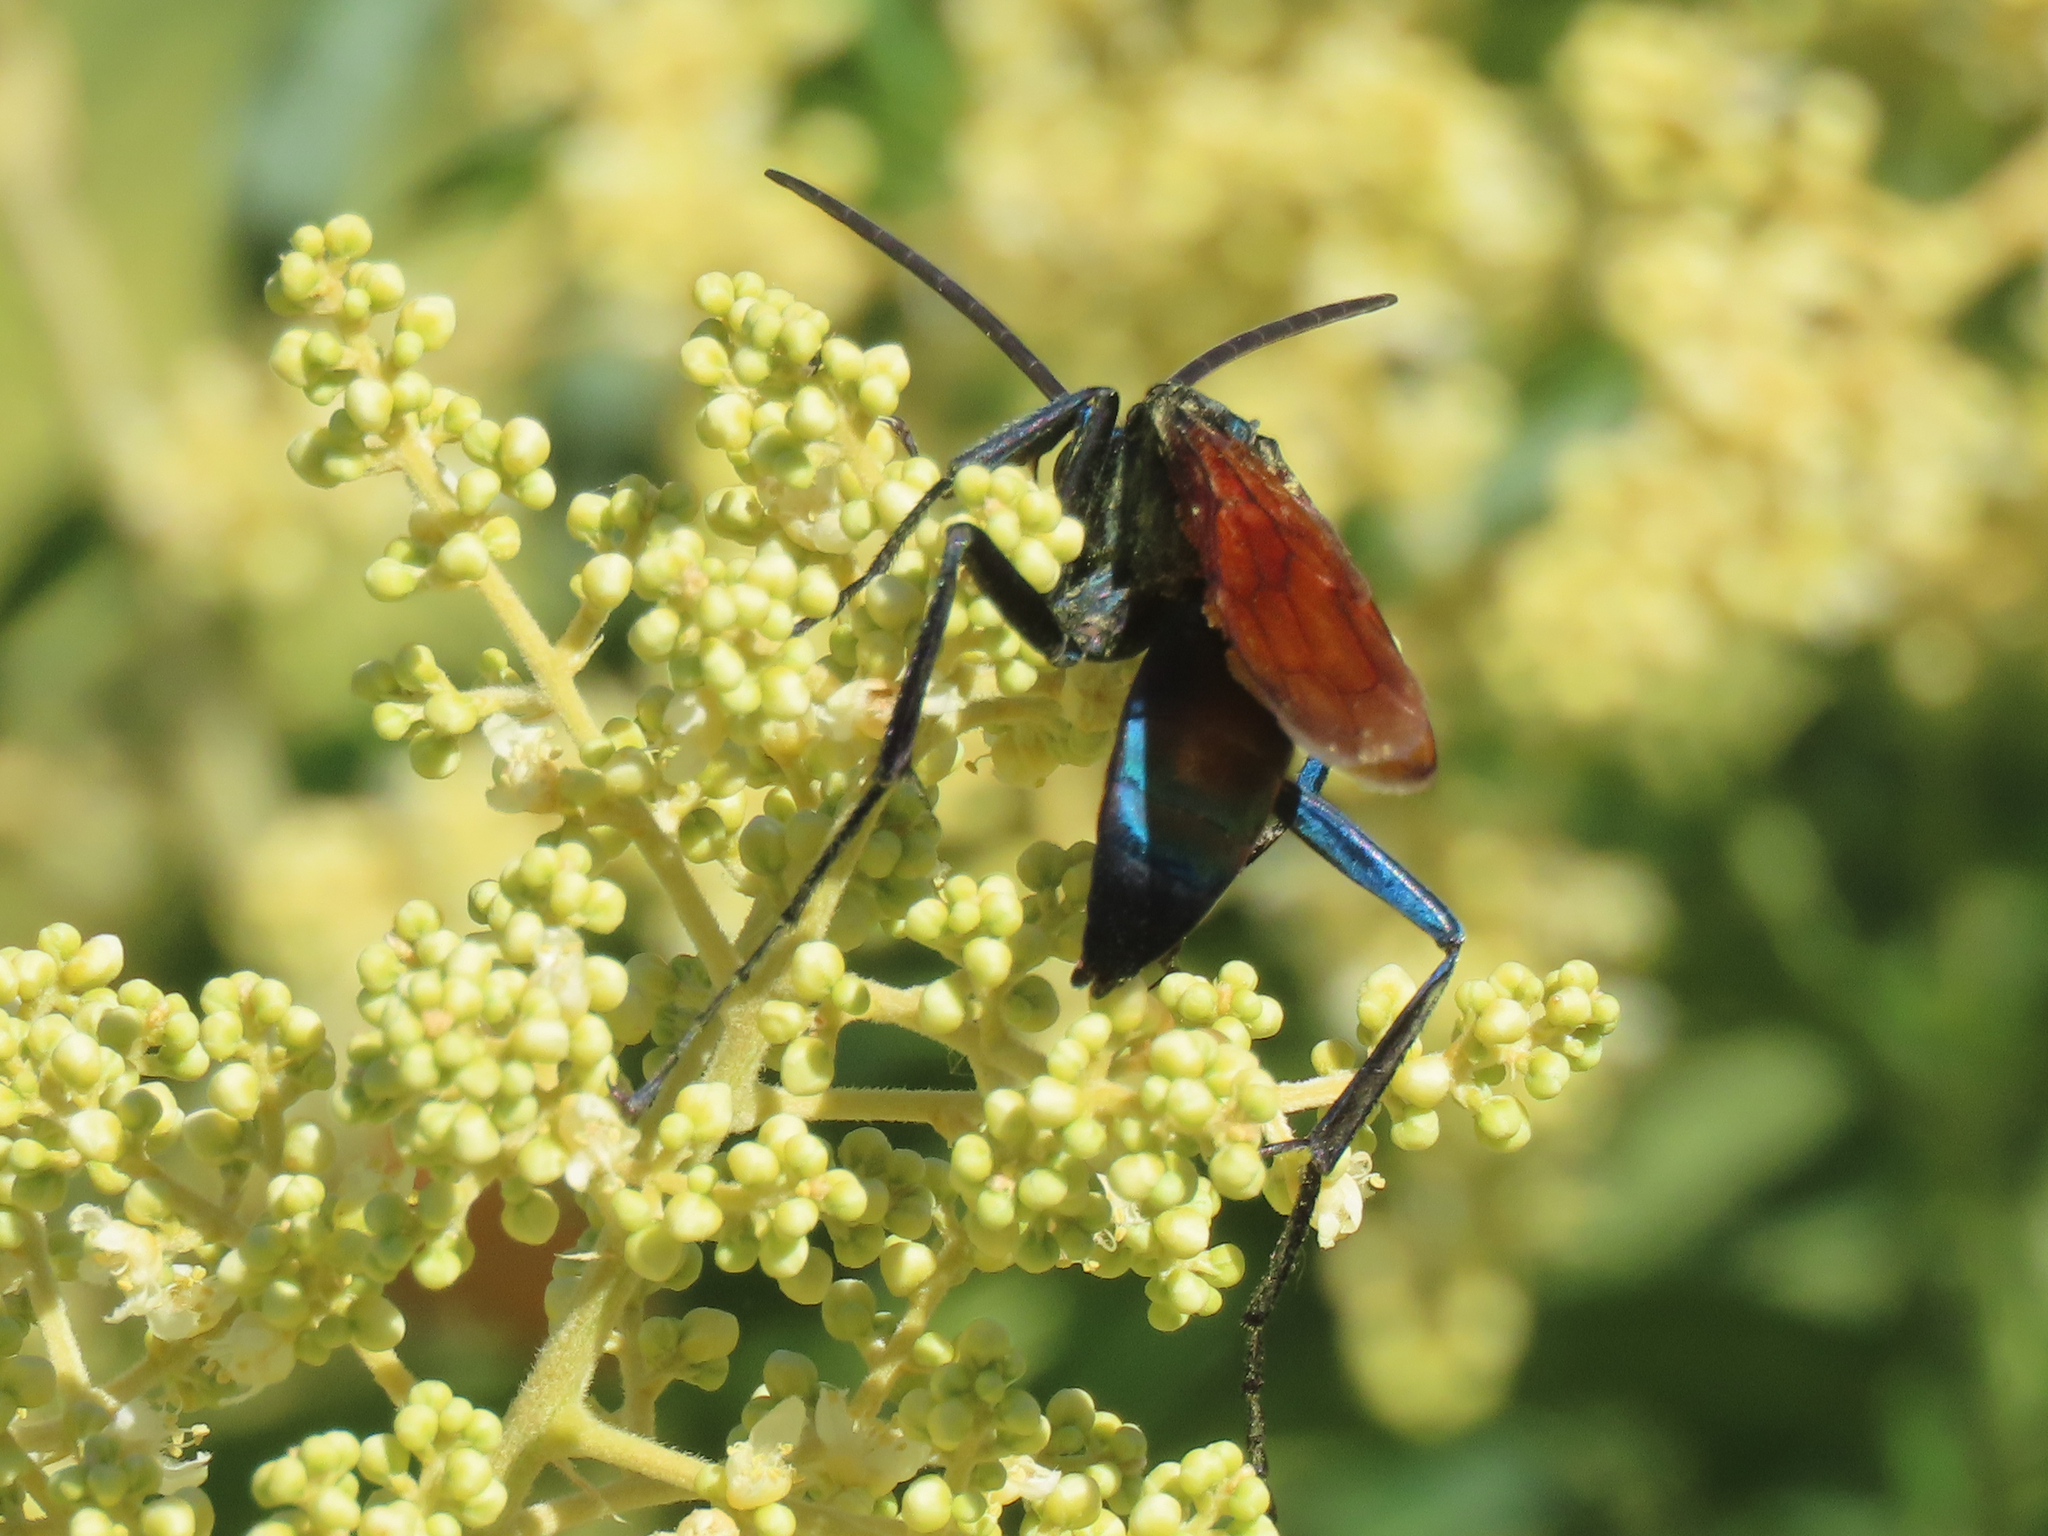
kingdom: Animalia
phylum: Arthropoda
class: Insecta
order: Hymenoptera
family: Pompilidae
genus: Pepsis
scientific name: Pepsis thisbe
